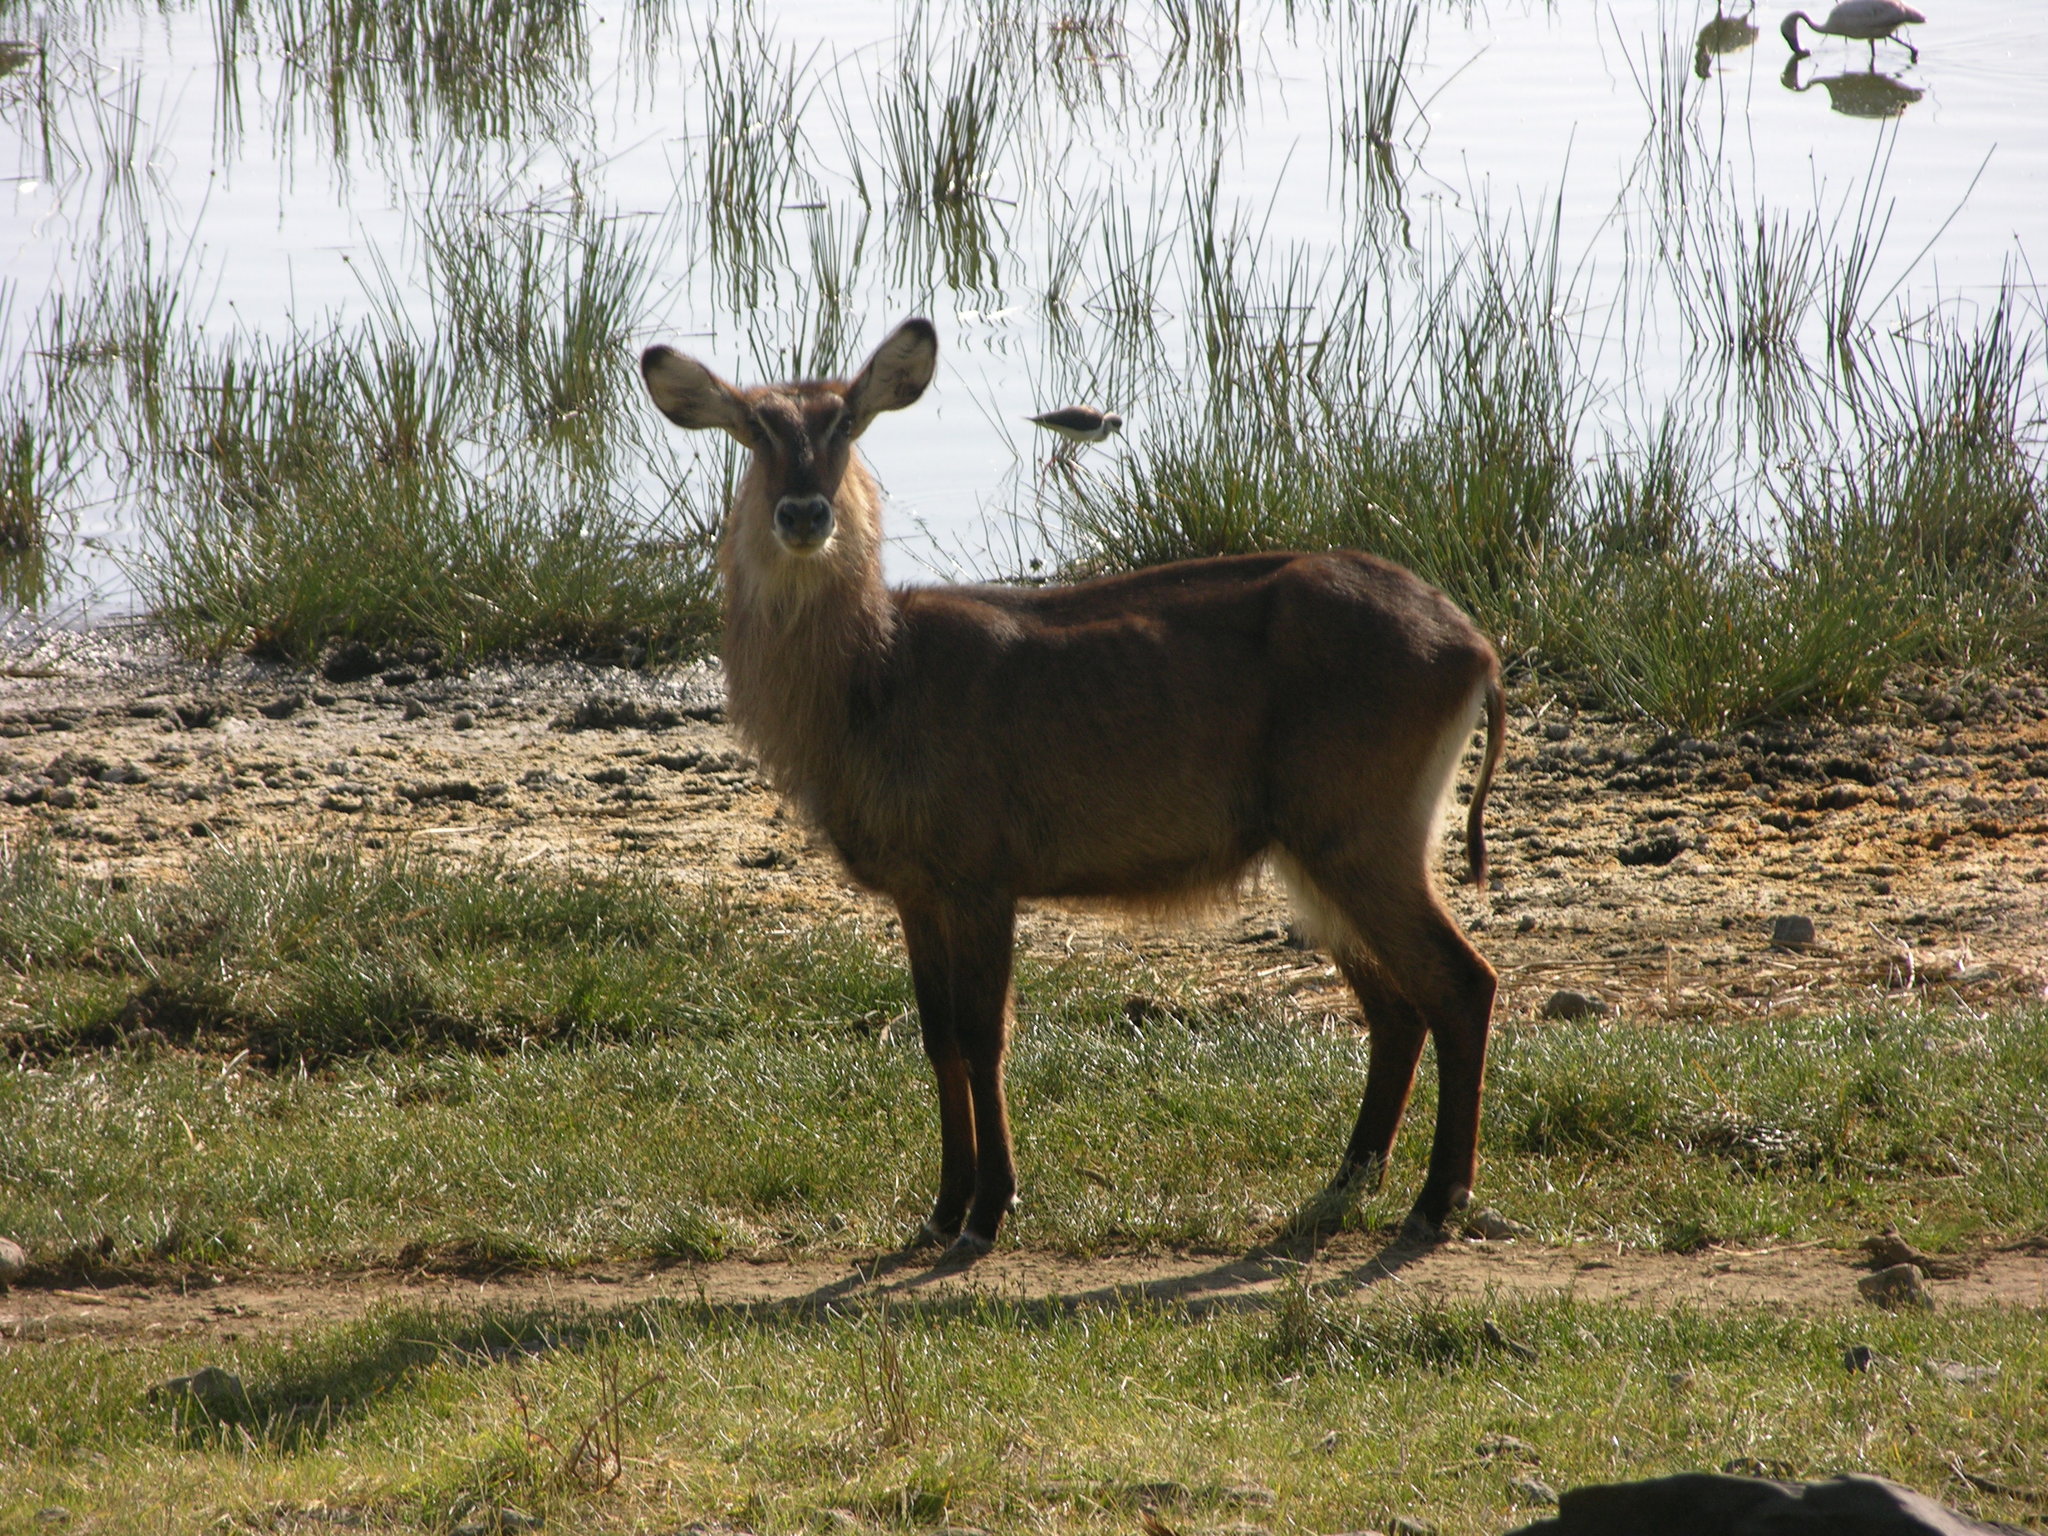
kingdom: Animalia
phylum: Chordata
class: Mammalia
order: Artiodactyla
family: Bovidae
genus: Kobus
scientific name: Kobus ellipsiprymnus
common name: Waterbuck
